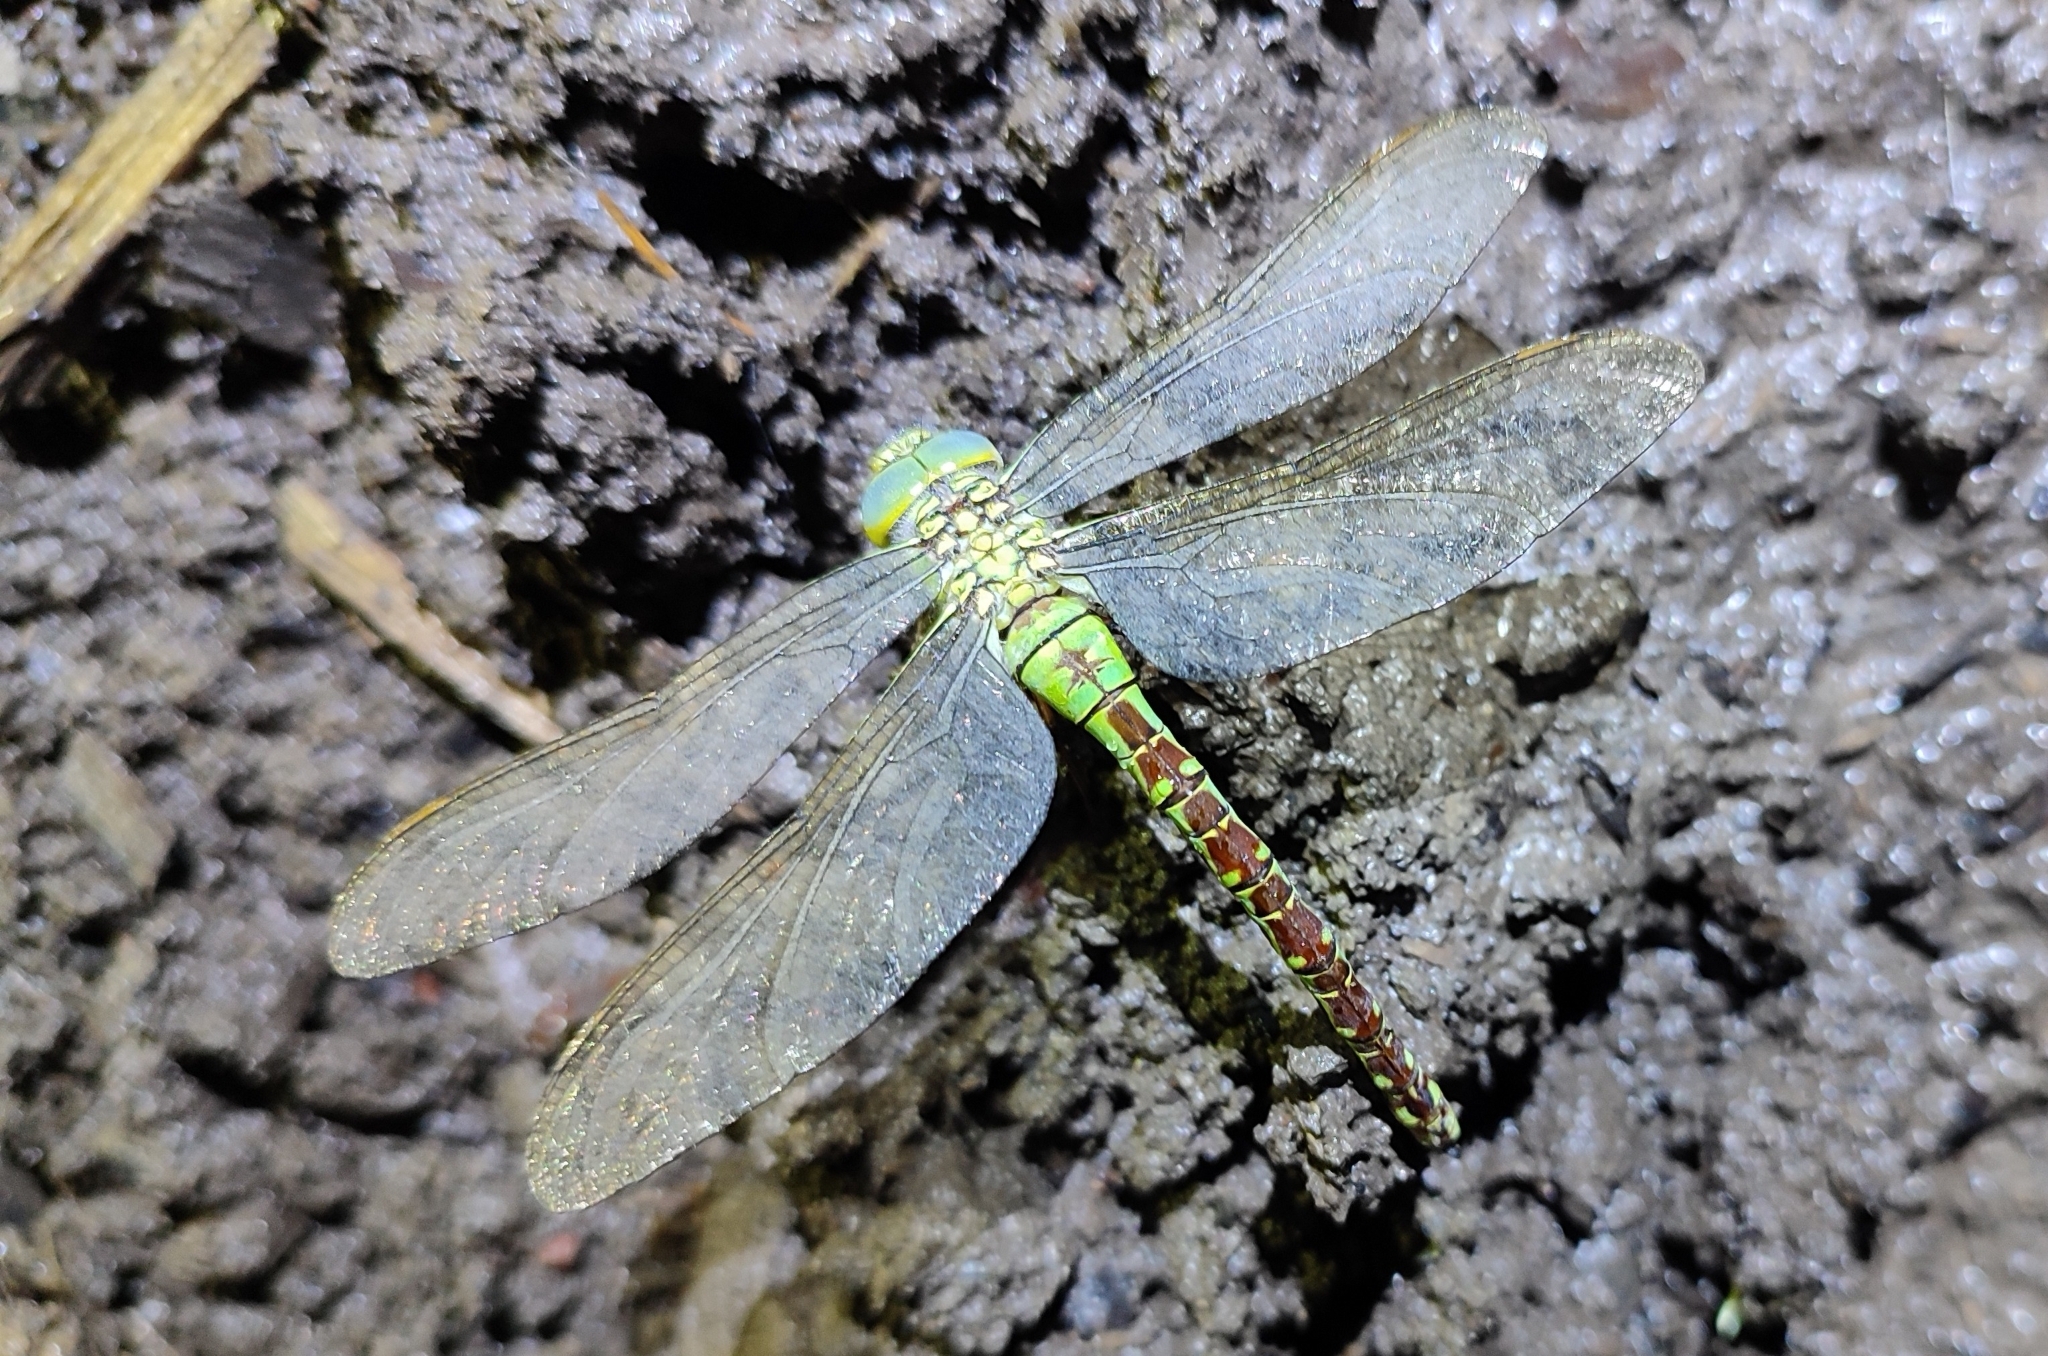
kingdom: Animalia
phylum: Arthropoda
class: Insecta
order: Odonata
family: Aeshnidae
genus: Aeshna
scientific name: Aeshna viridis
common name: Green hawker
